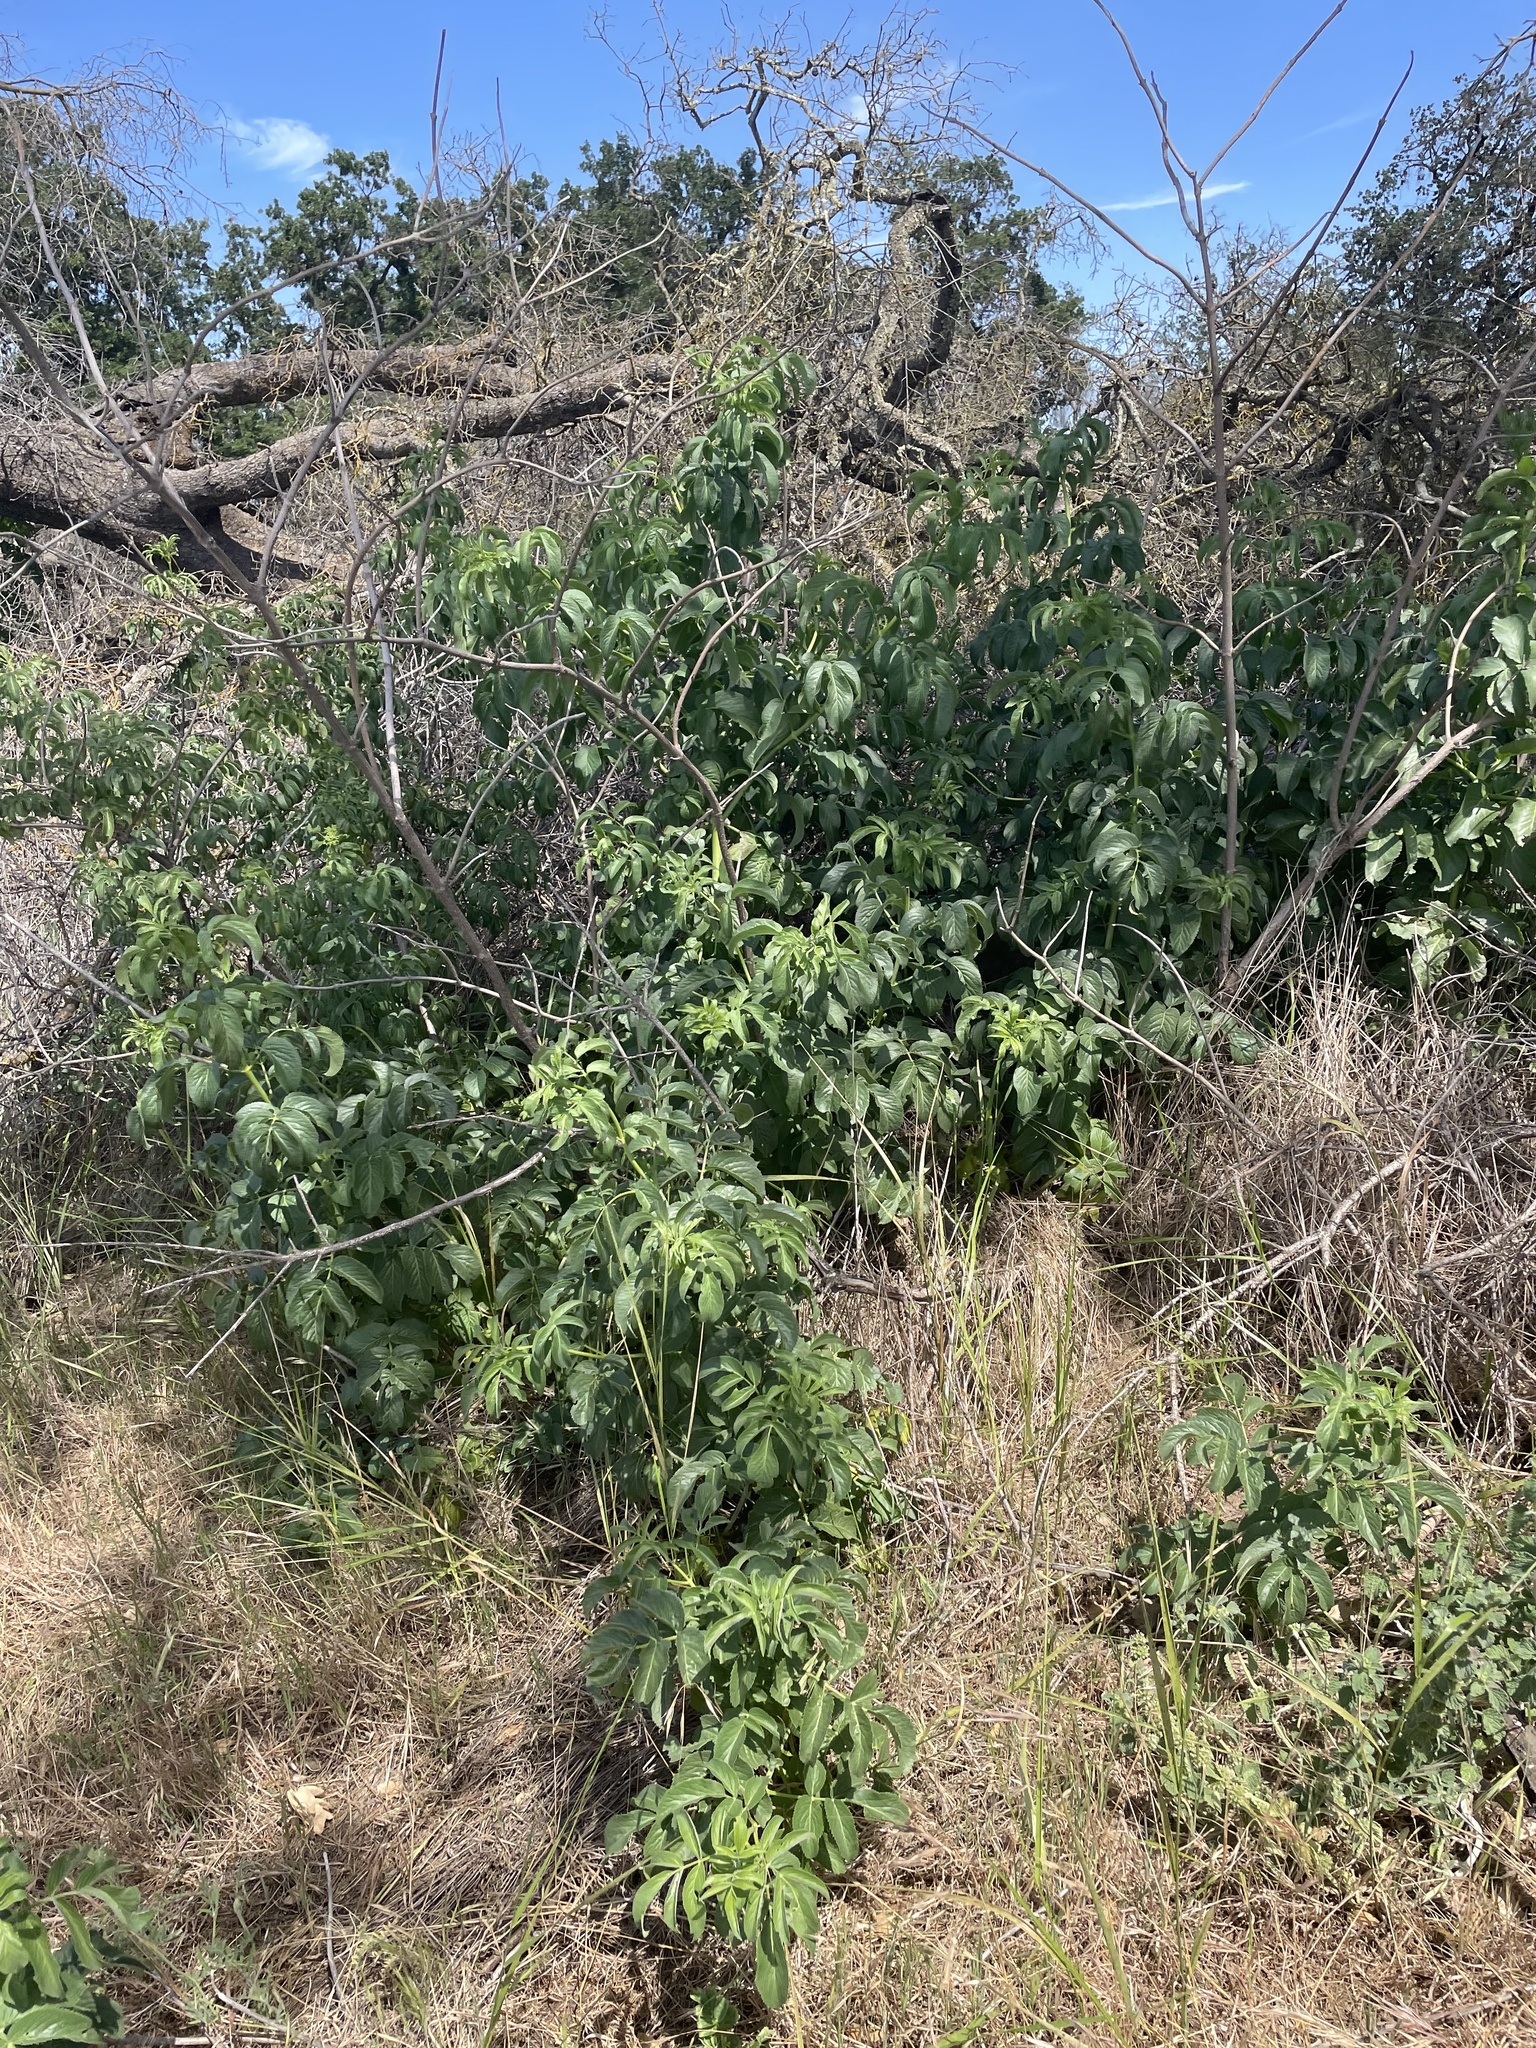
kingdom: Plantae
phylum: Tracheophyta
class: Magnoliopsida
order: Dipsacales
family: Viburnaceae
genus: Sambucus
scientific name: Sambucus cerulea
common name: Blue elder
